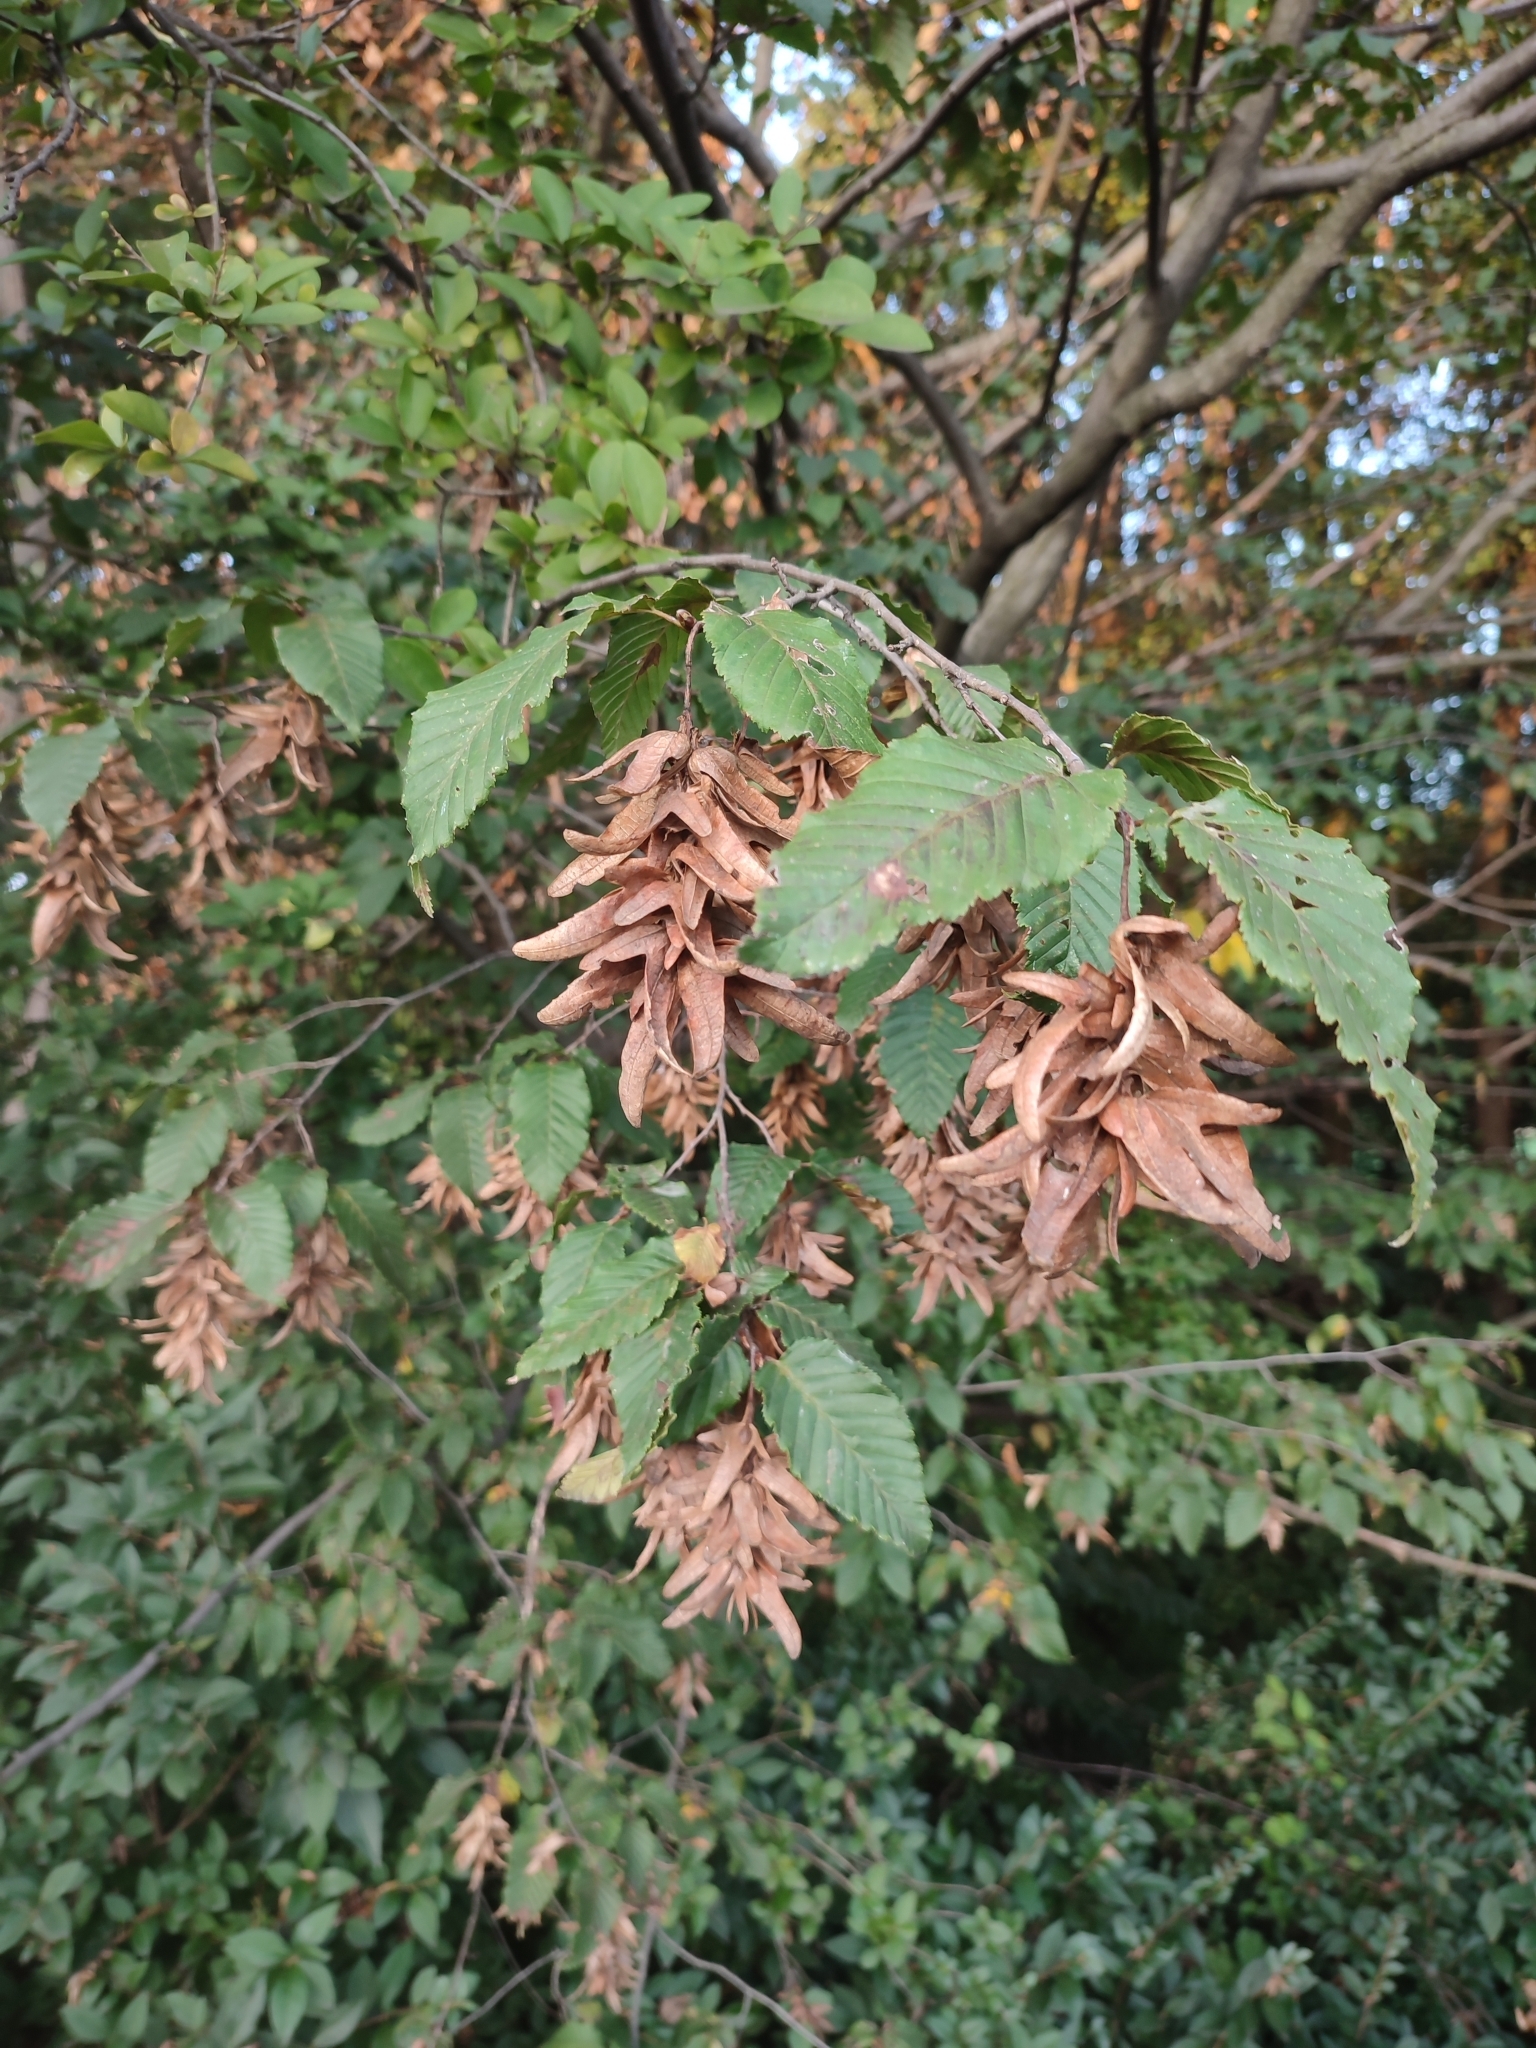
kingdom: Plantae
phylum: Tracheophyta
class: Magnoliopsida
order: Fagales
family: Betulaceae
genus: Carpinus
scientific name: Carpinus betulus
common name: Hornbeam
